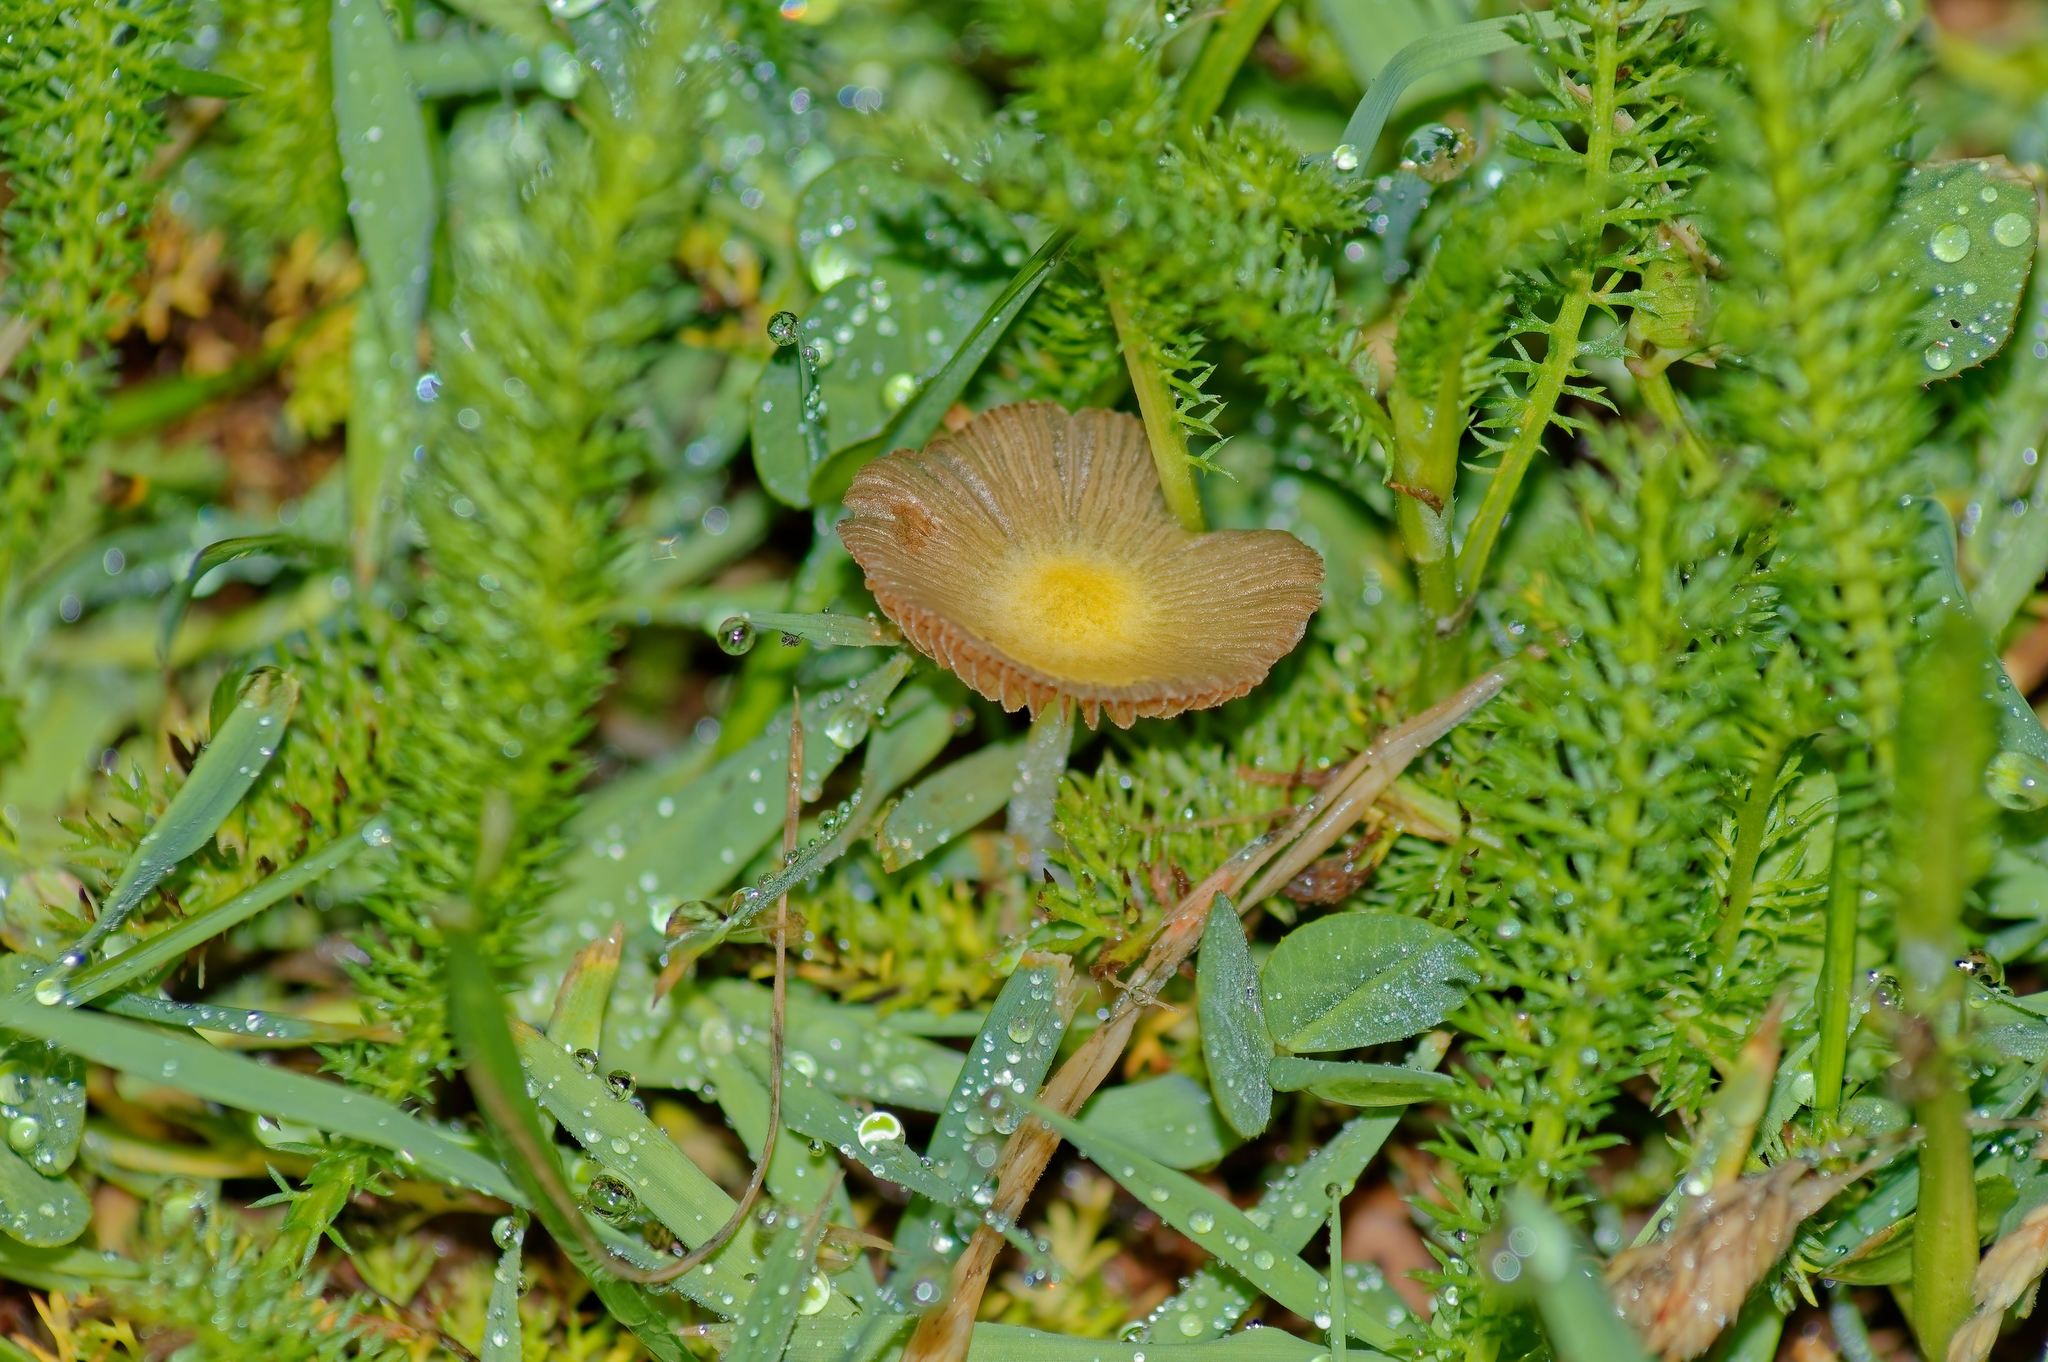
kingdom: Fungi
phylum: Basidiomycota
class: Agaricomycetes
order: Agaricales
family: Bolbitiaceae
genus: Bolbitius
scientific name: Bolbitius titubans
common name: Yellow fieldcap
